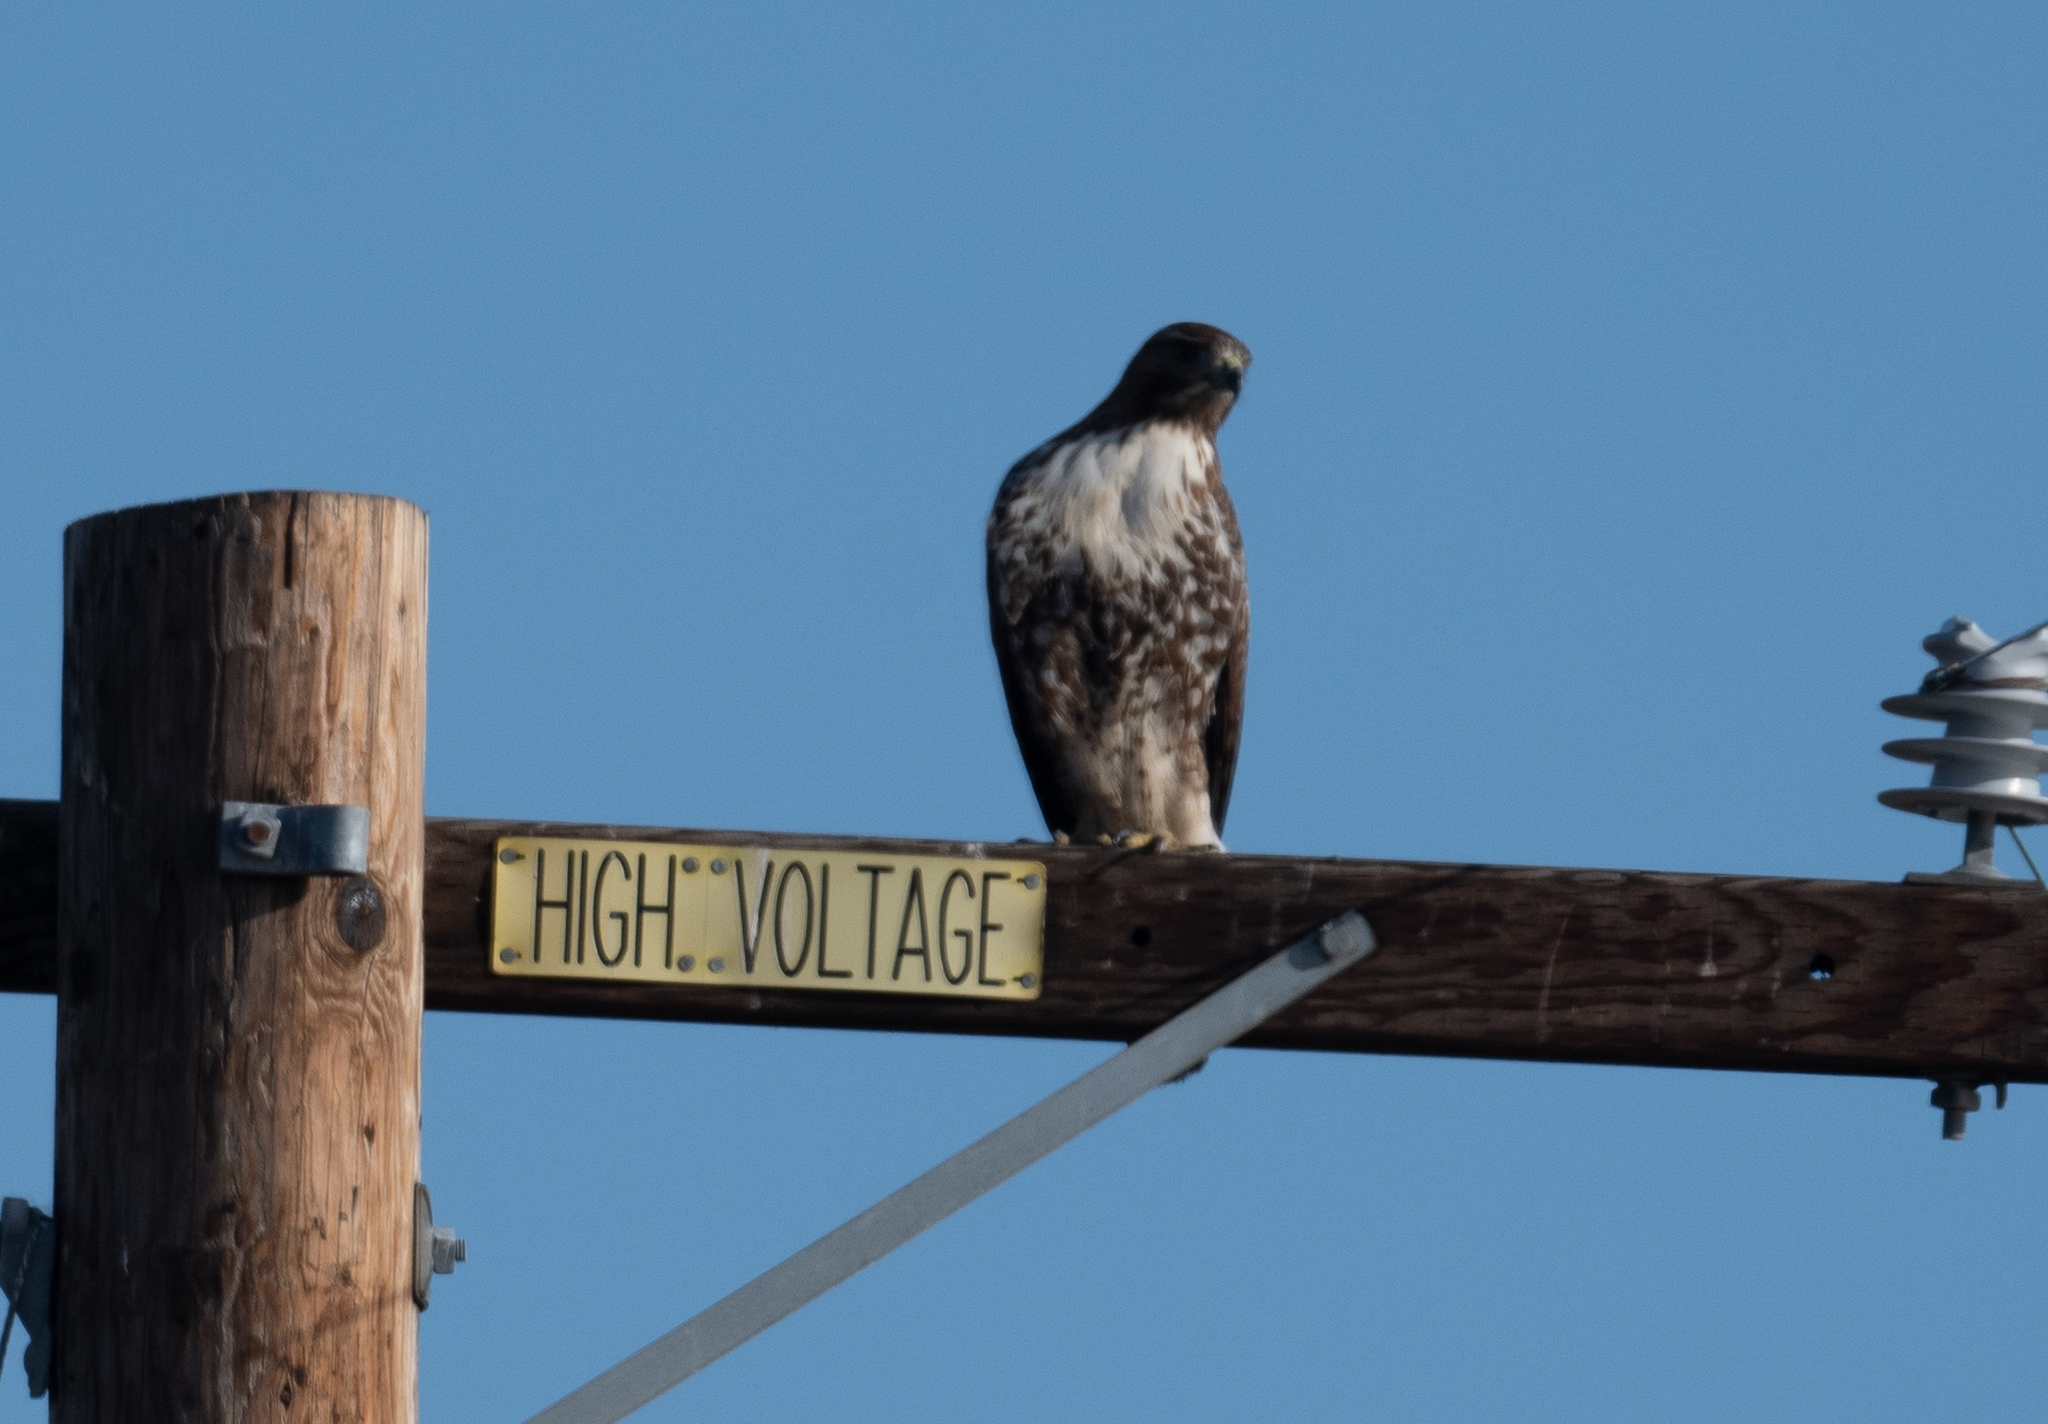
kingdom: Animalia
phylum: Chordata
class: Aves
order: Accipitriformes
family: Accipitridae
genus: Buteo
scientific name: Buteo jamaicensis
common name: Red-tailed hawk
